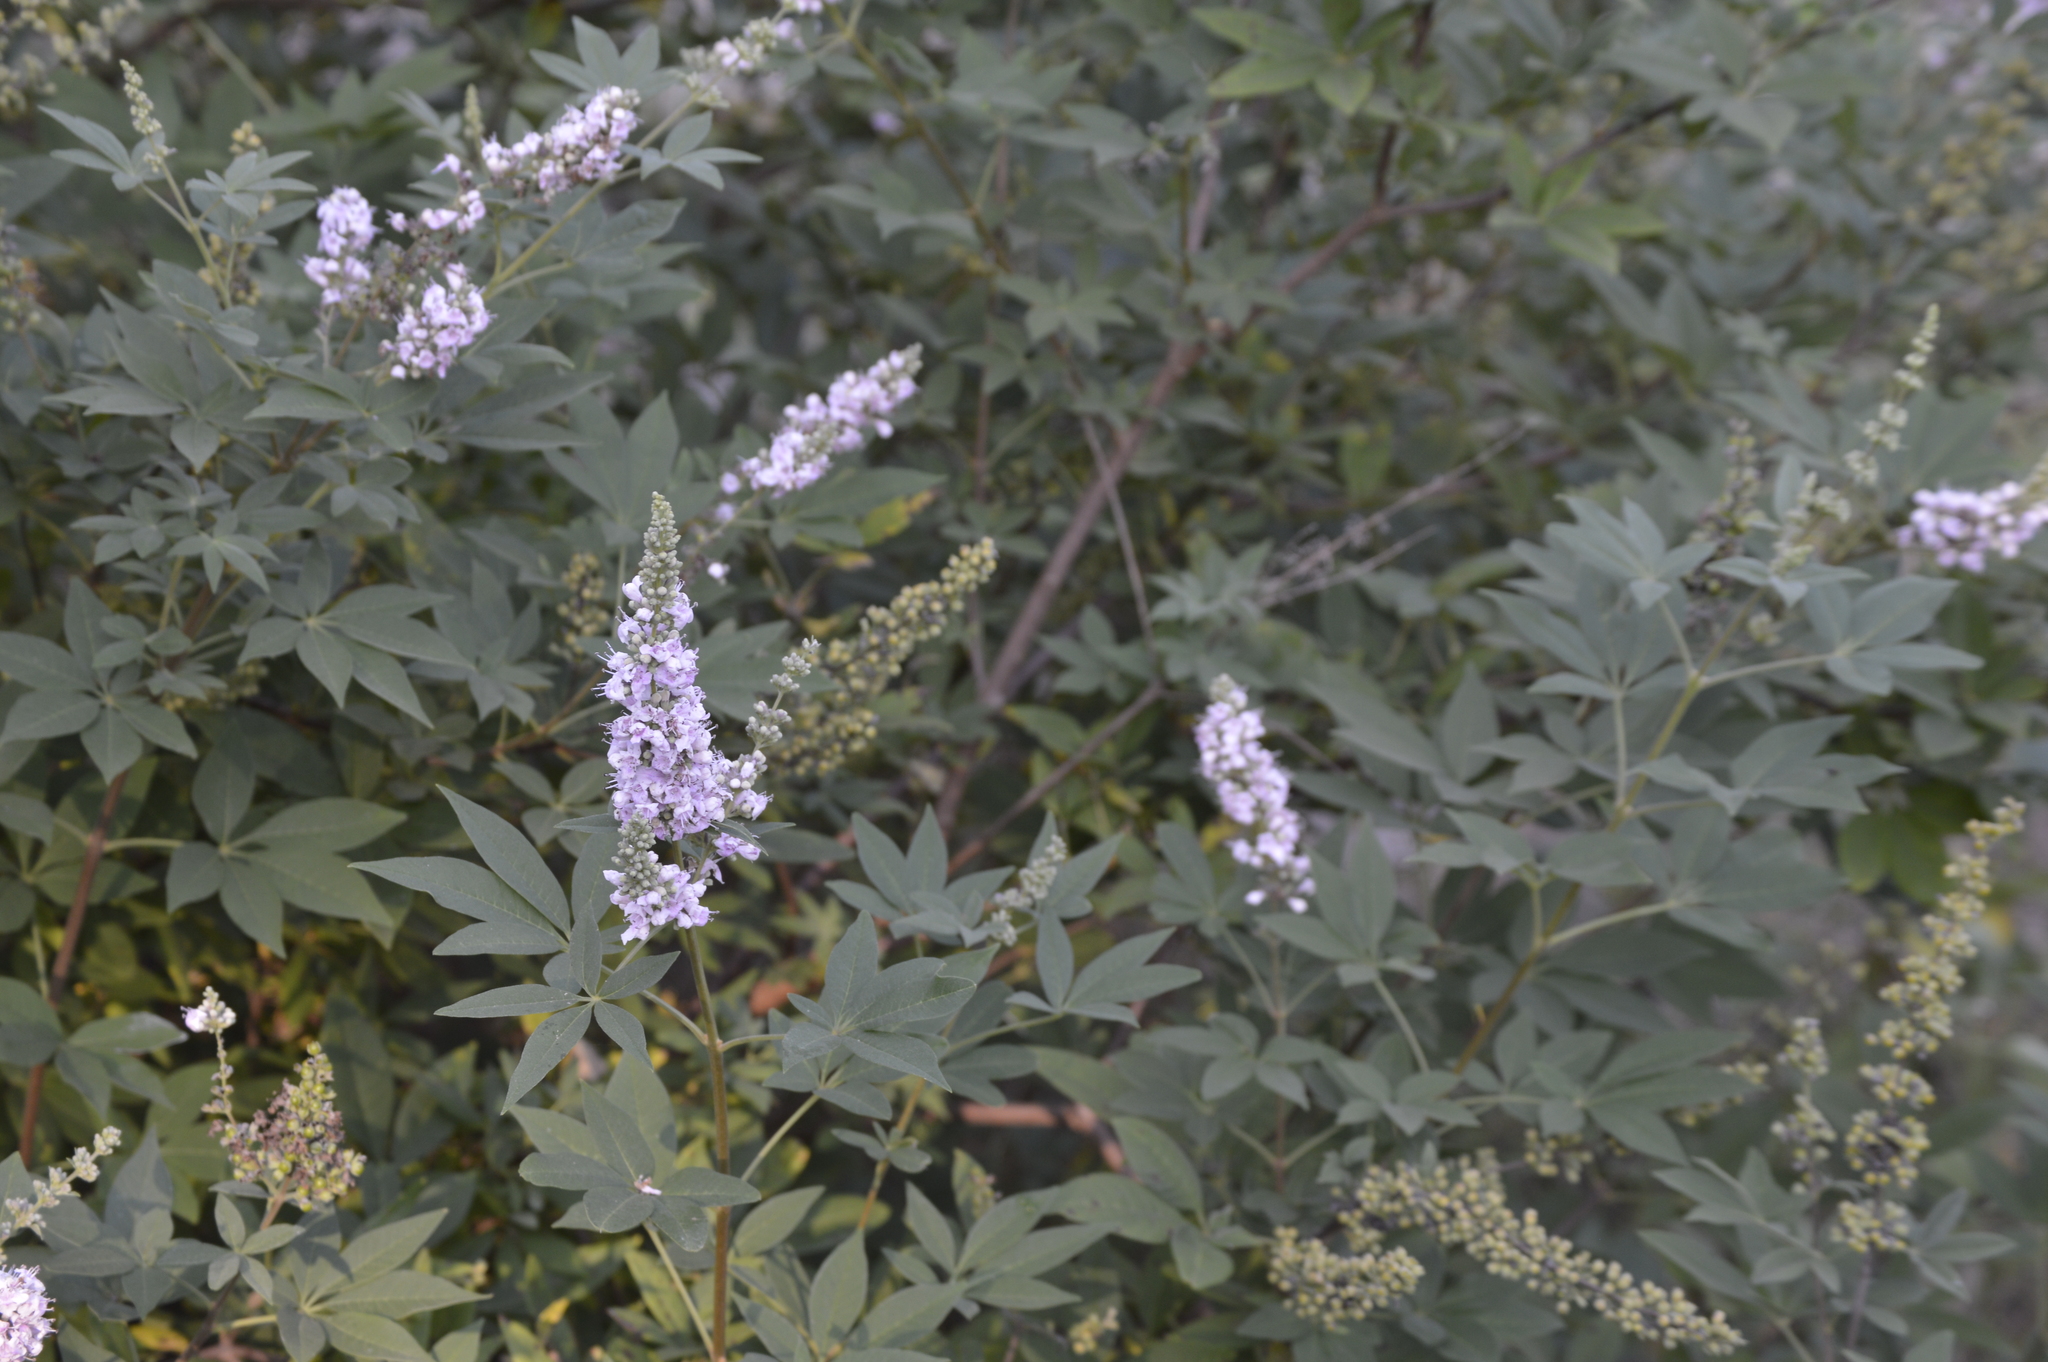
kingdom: Plantae
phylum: Tracheophyta
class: Magnoliopsida
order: Lamiales
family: Lamiaceae
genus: Vitex
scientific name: Vitex agnus-castus
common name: Chasteberry
